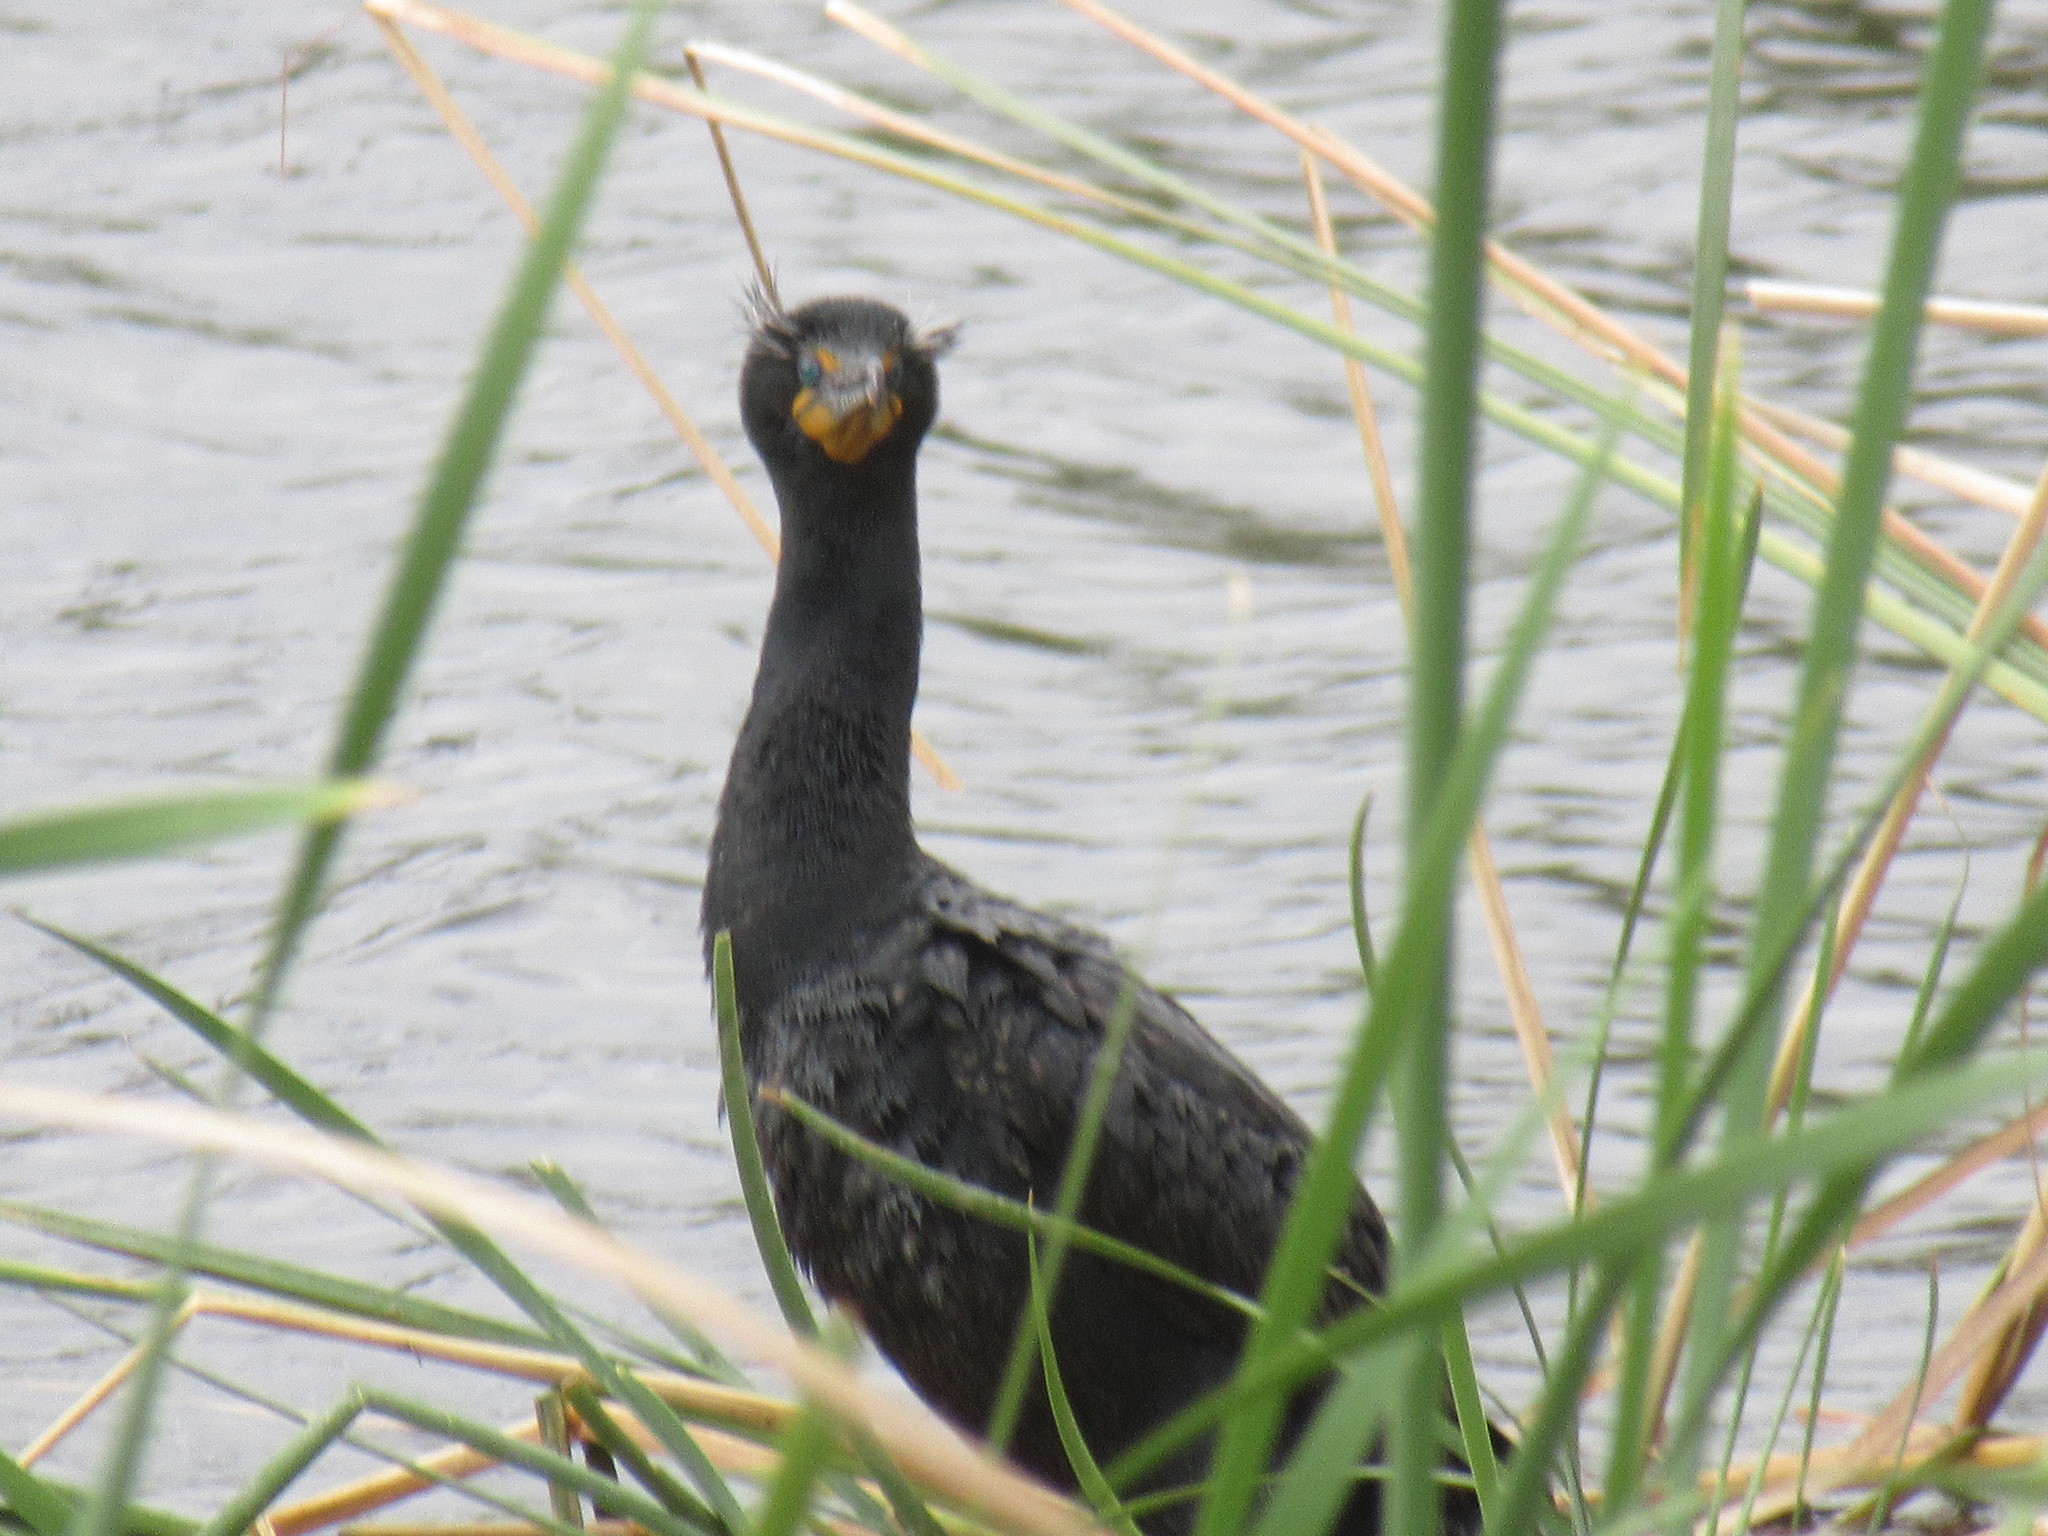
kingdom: Animalia
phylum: Chordata
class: Aves
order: Suliformes
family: Phalacrocoracidae
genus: Phalacrocorax
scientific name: Phalacrocorax auritus
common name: Double-crested cormorant
